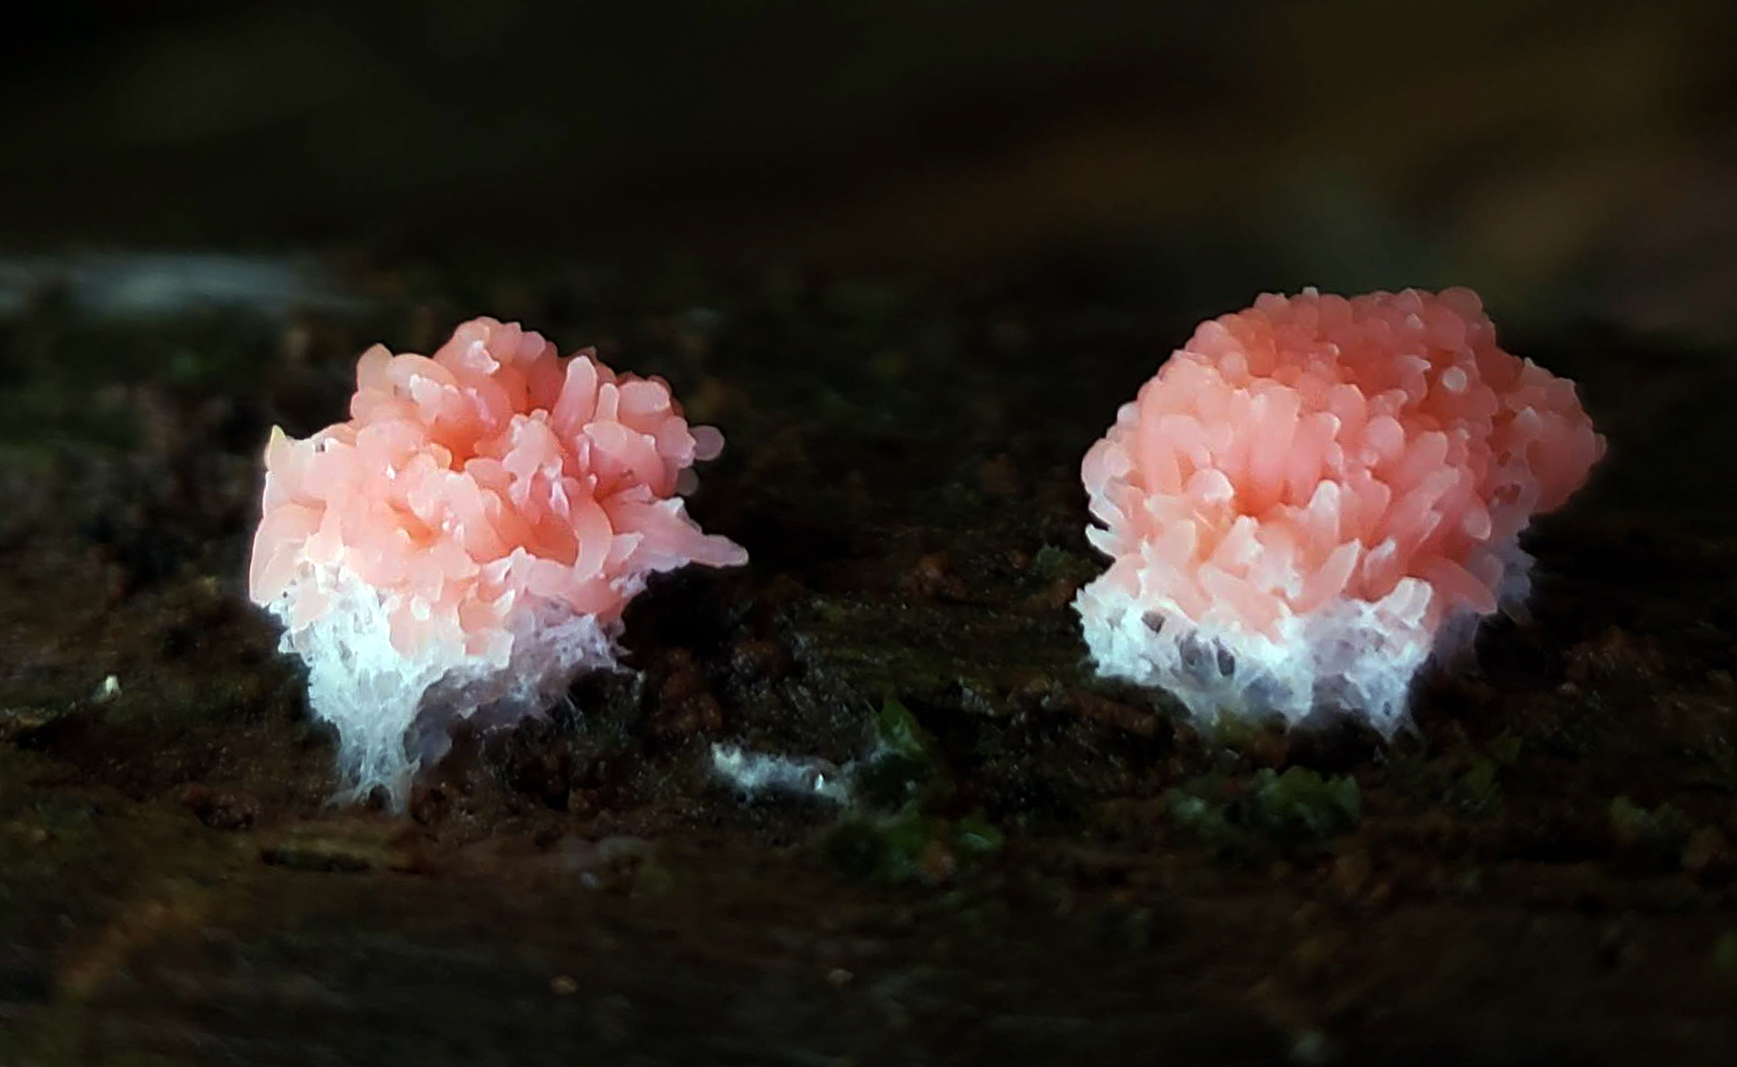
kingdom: Protozoa
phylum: Mycetozoa
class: Myxomycetes
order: Cribrariales
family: Tubiferaceae
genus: Tubifera
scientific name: Tubifera ferruginosa
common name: Red raspberry slime mold
